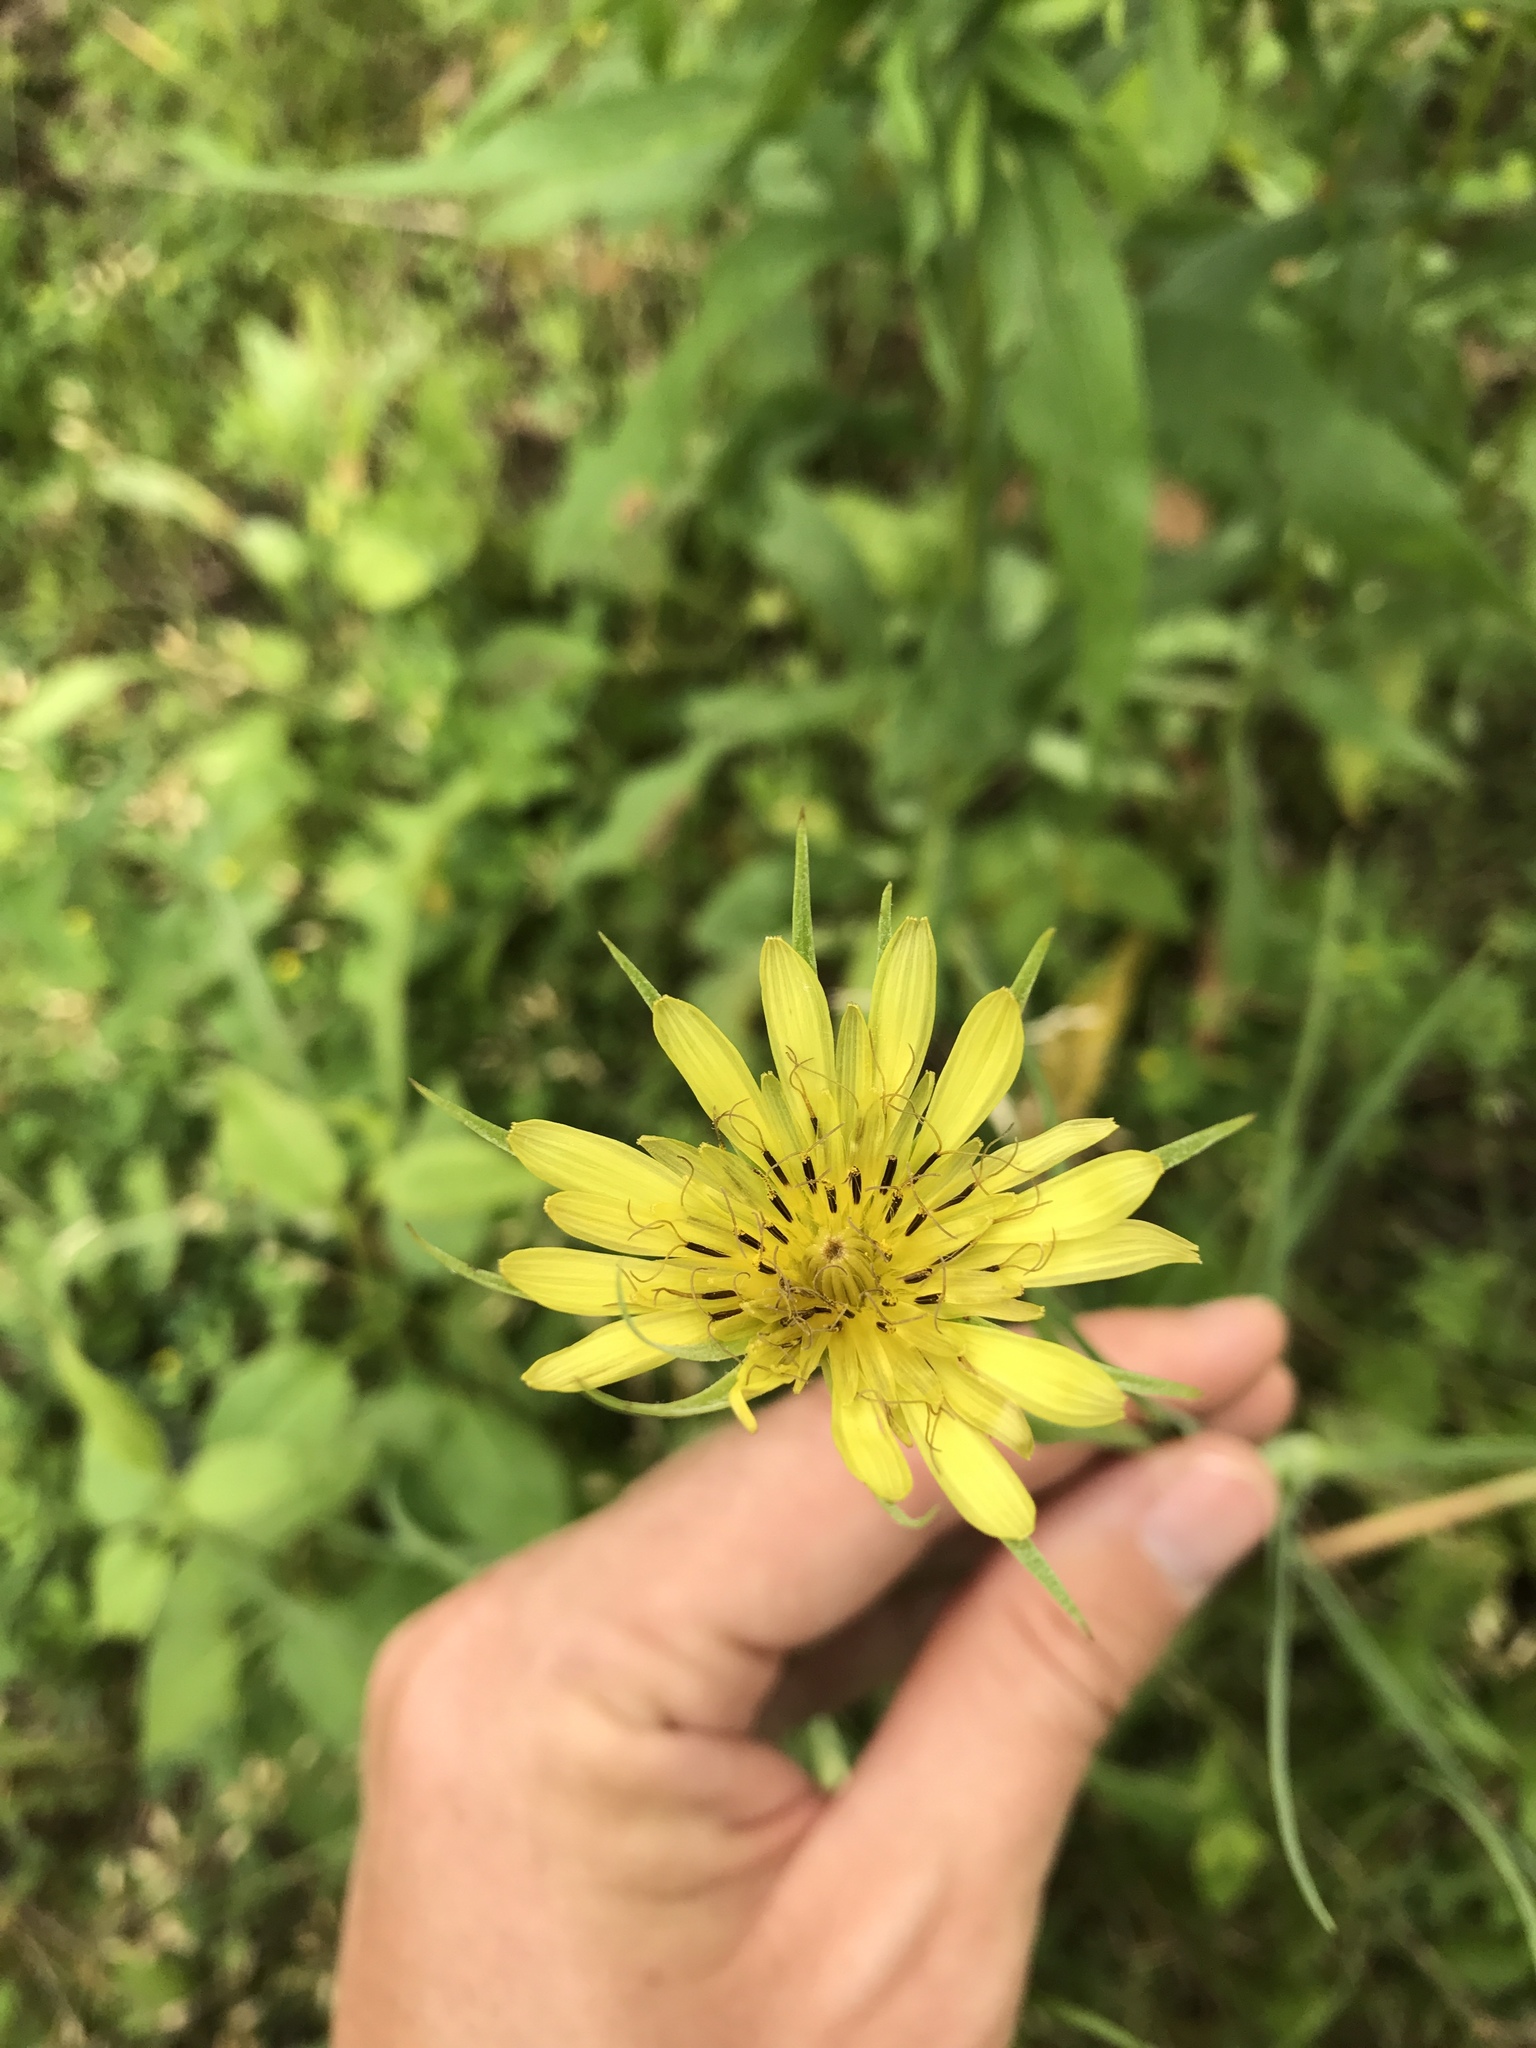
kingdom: Plantae
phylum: Tracheophyta
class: Magnoliopsida
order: Asterales
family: Asteraceae
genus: Tragopogon
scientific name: Tragopogon dubius
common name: Yellow salsify
